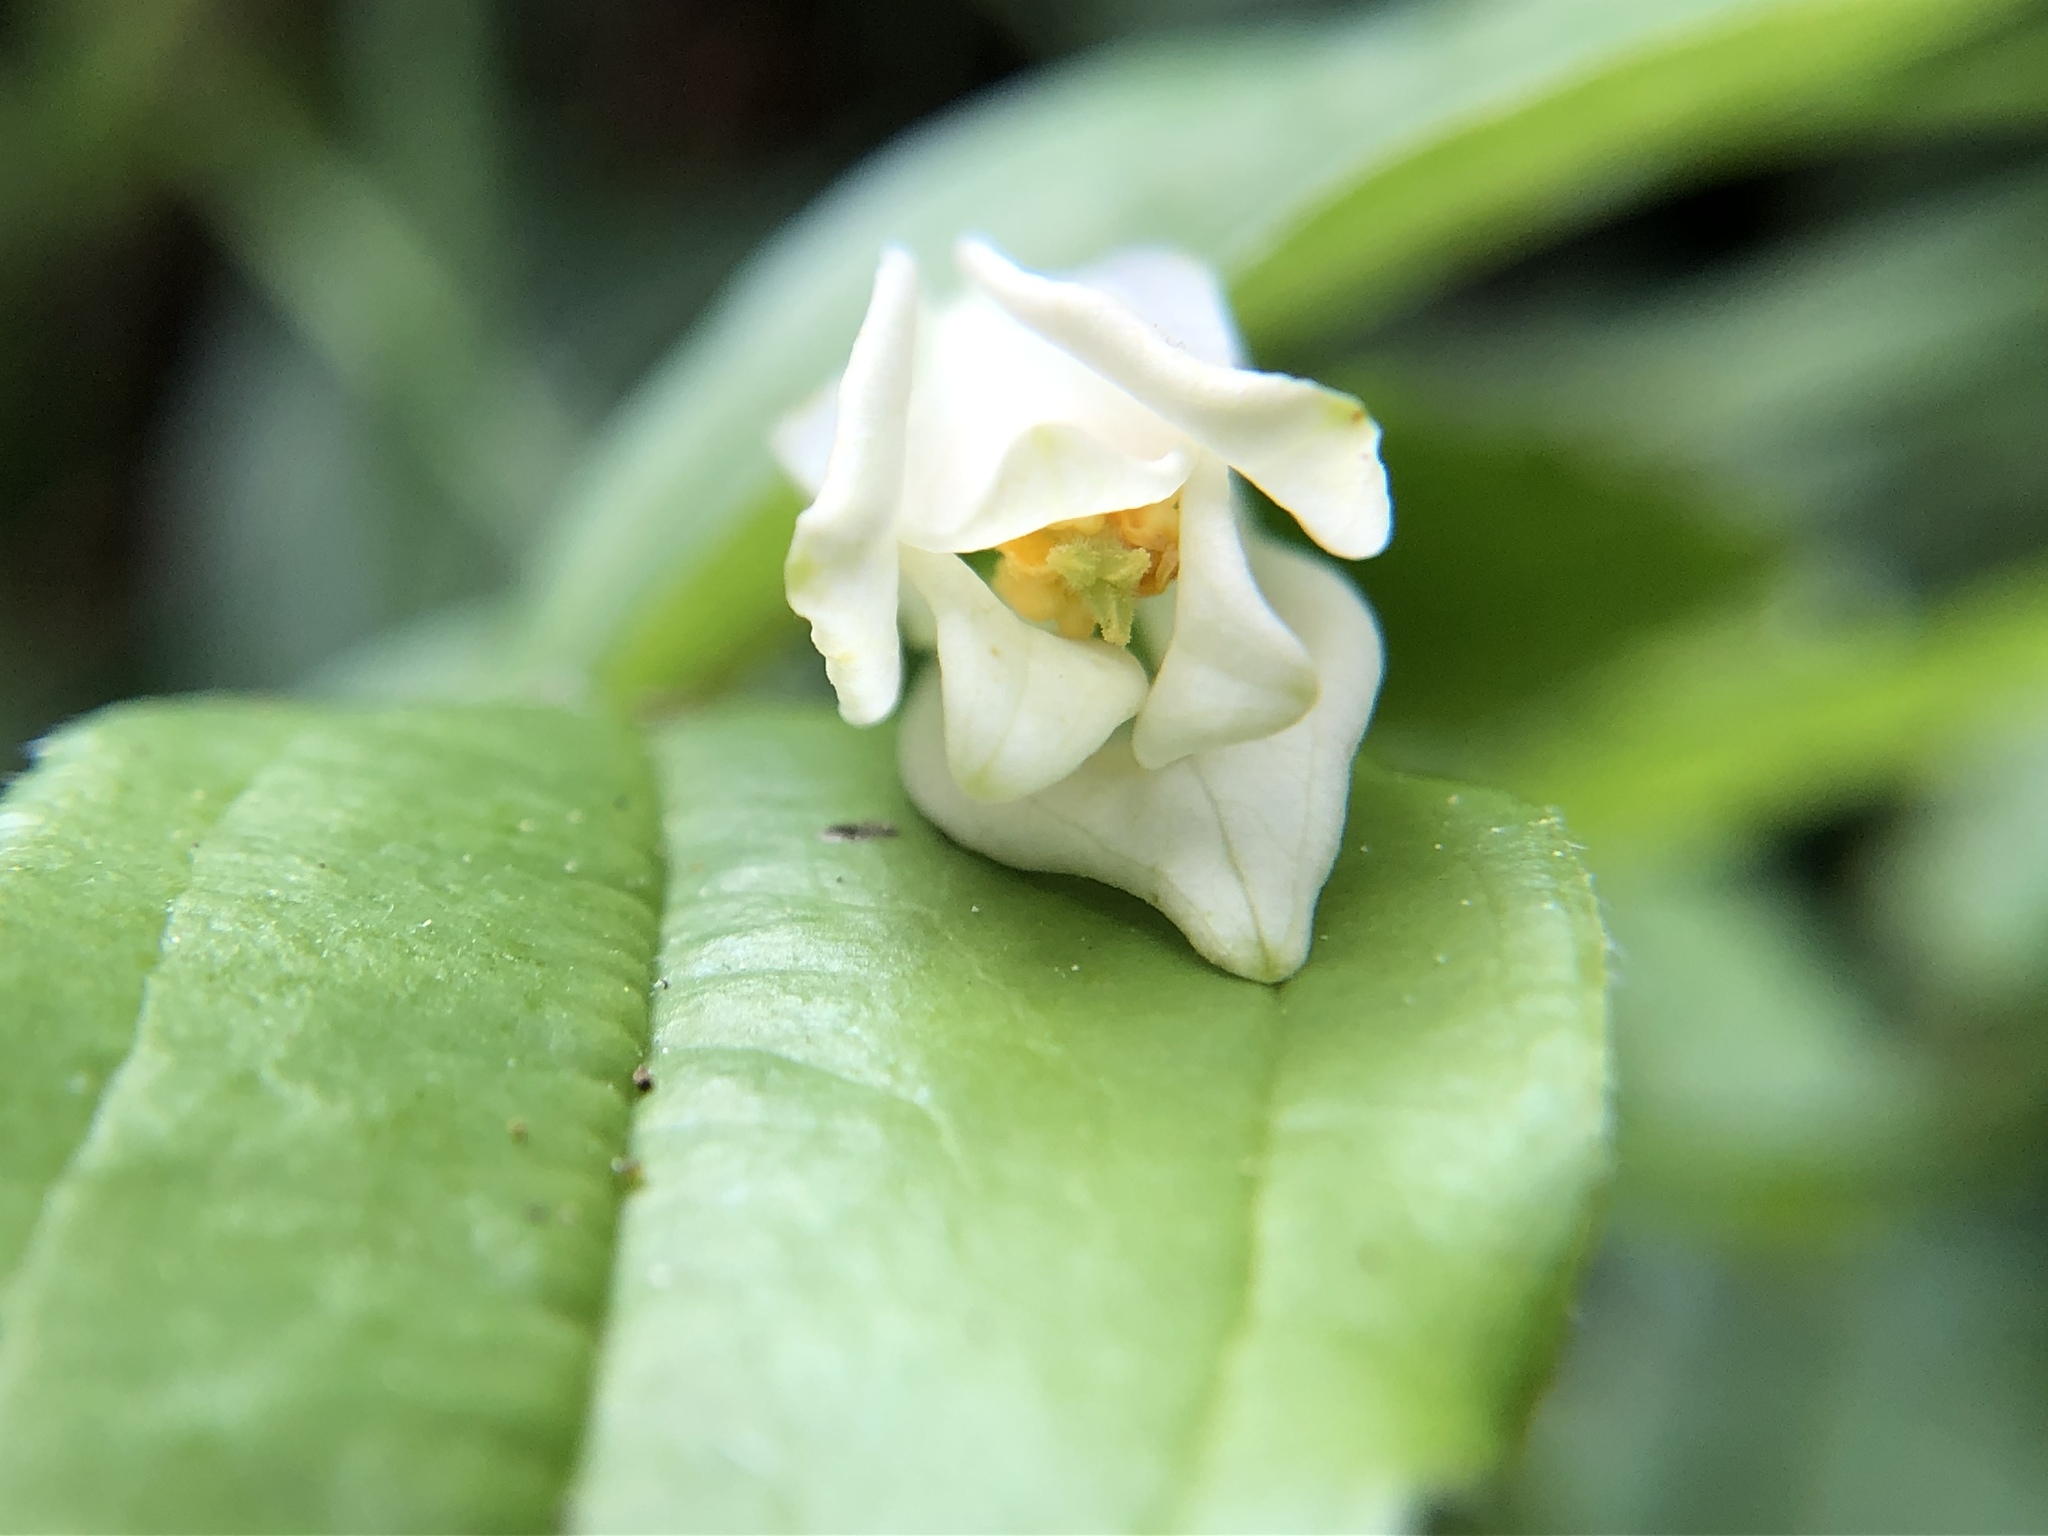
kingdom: Plantae
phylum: Tracheophyta
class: Liliopsida
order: Liliales
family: Liliaceae
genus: Prosartes
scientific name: Prosartes smithii
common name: Fairy-lantern
